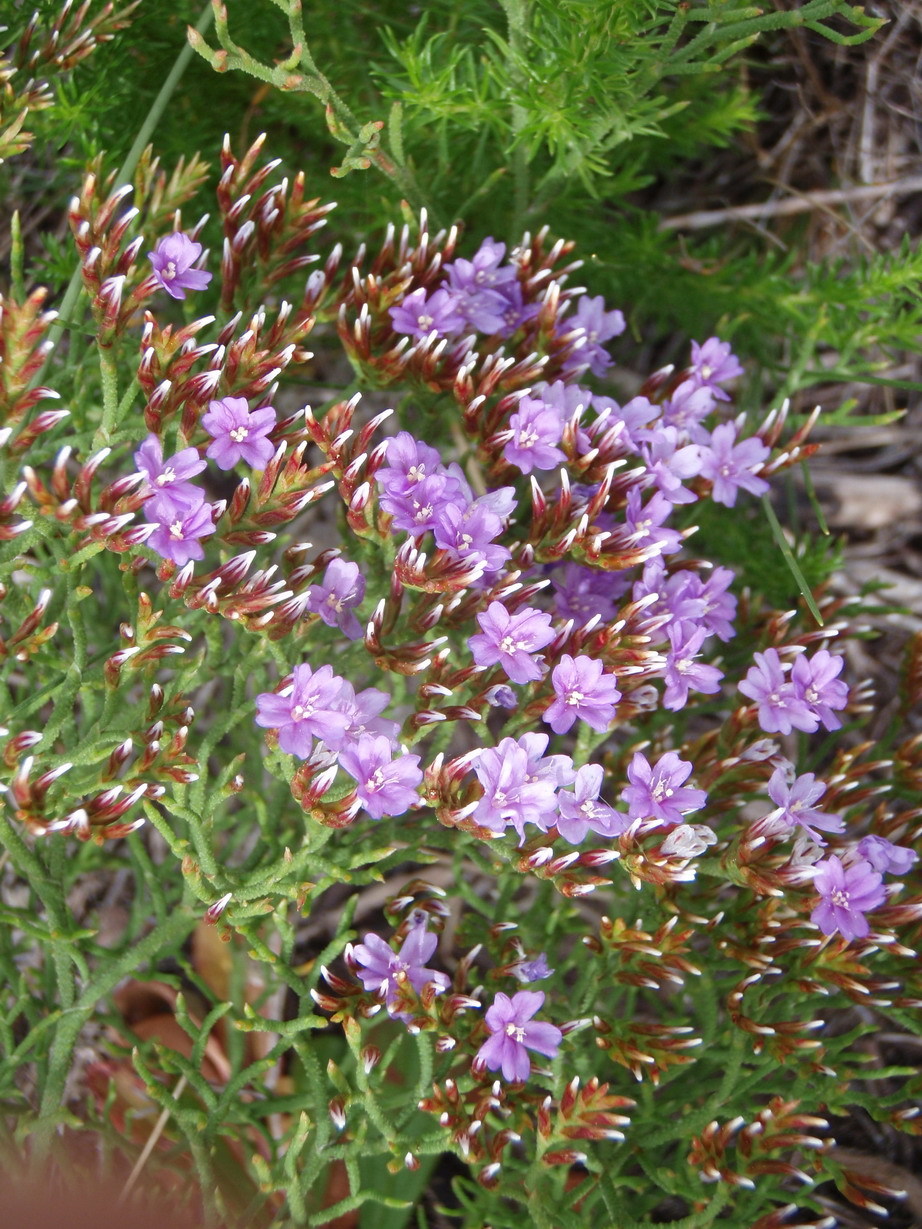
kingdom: Plantae
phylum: Tracheophyta
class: Magnoliopsida
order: Caryophyllales
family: Plumbaginaceae
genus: Limonium
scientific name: Limonium scabrum
